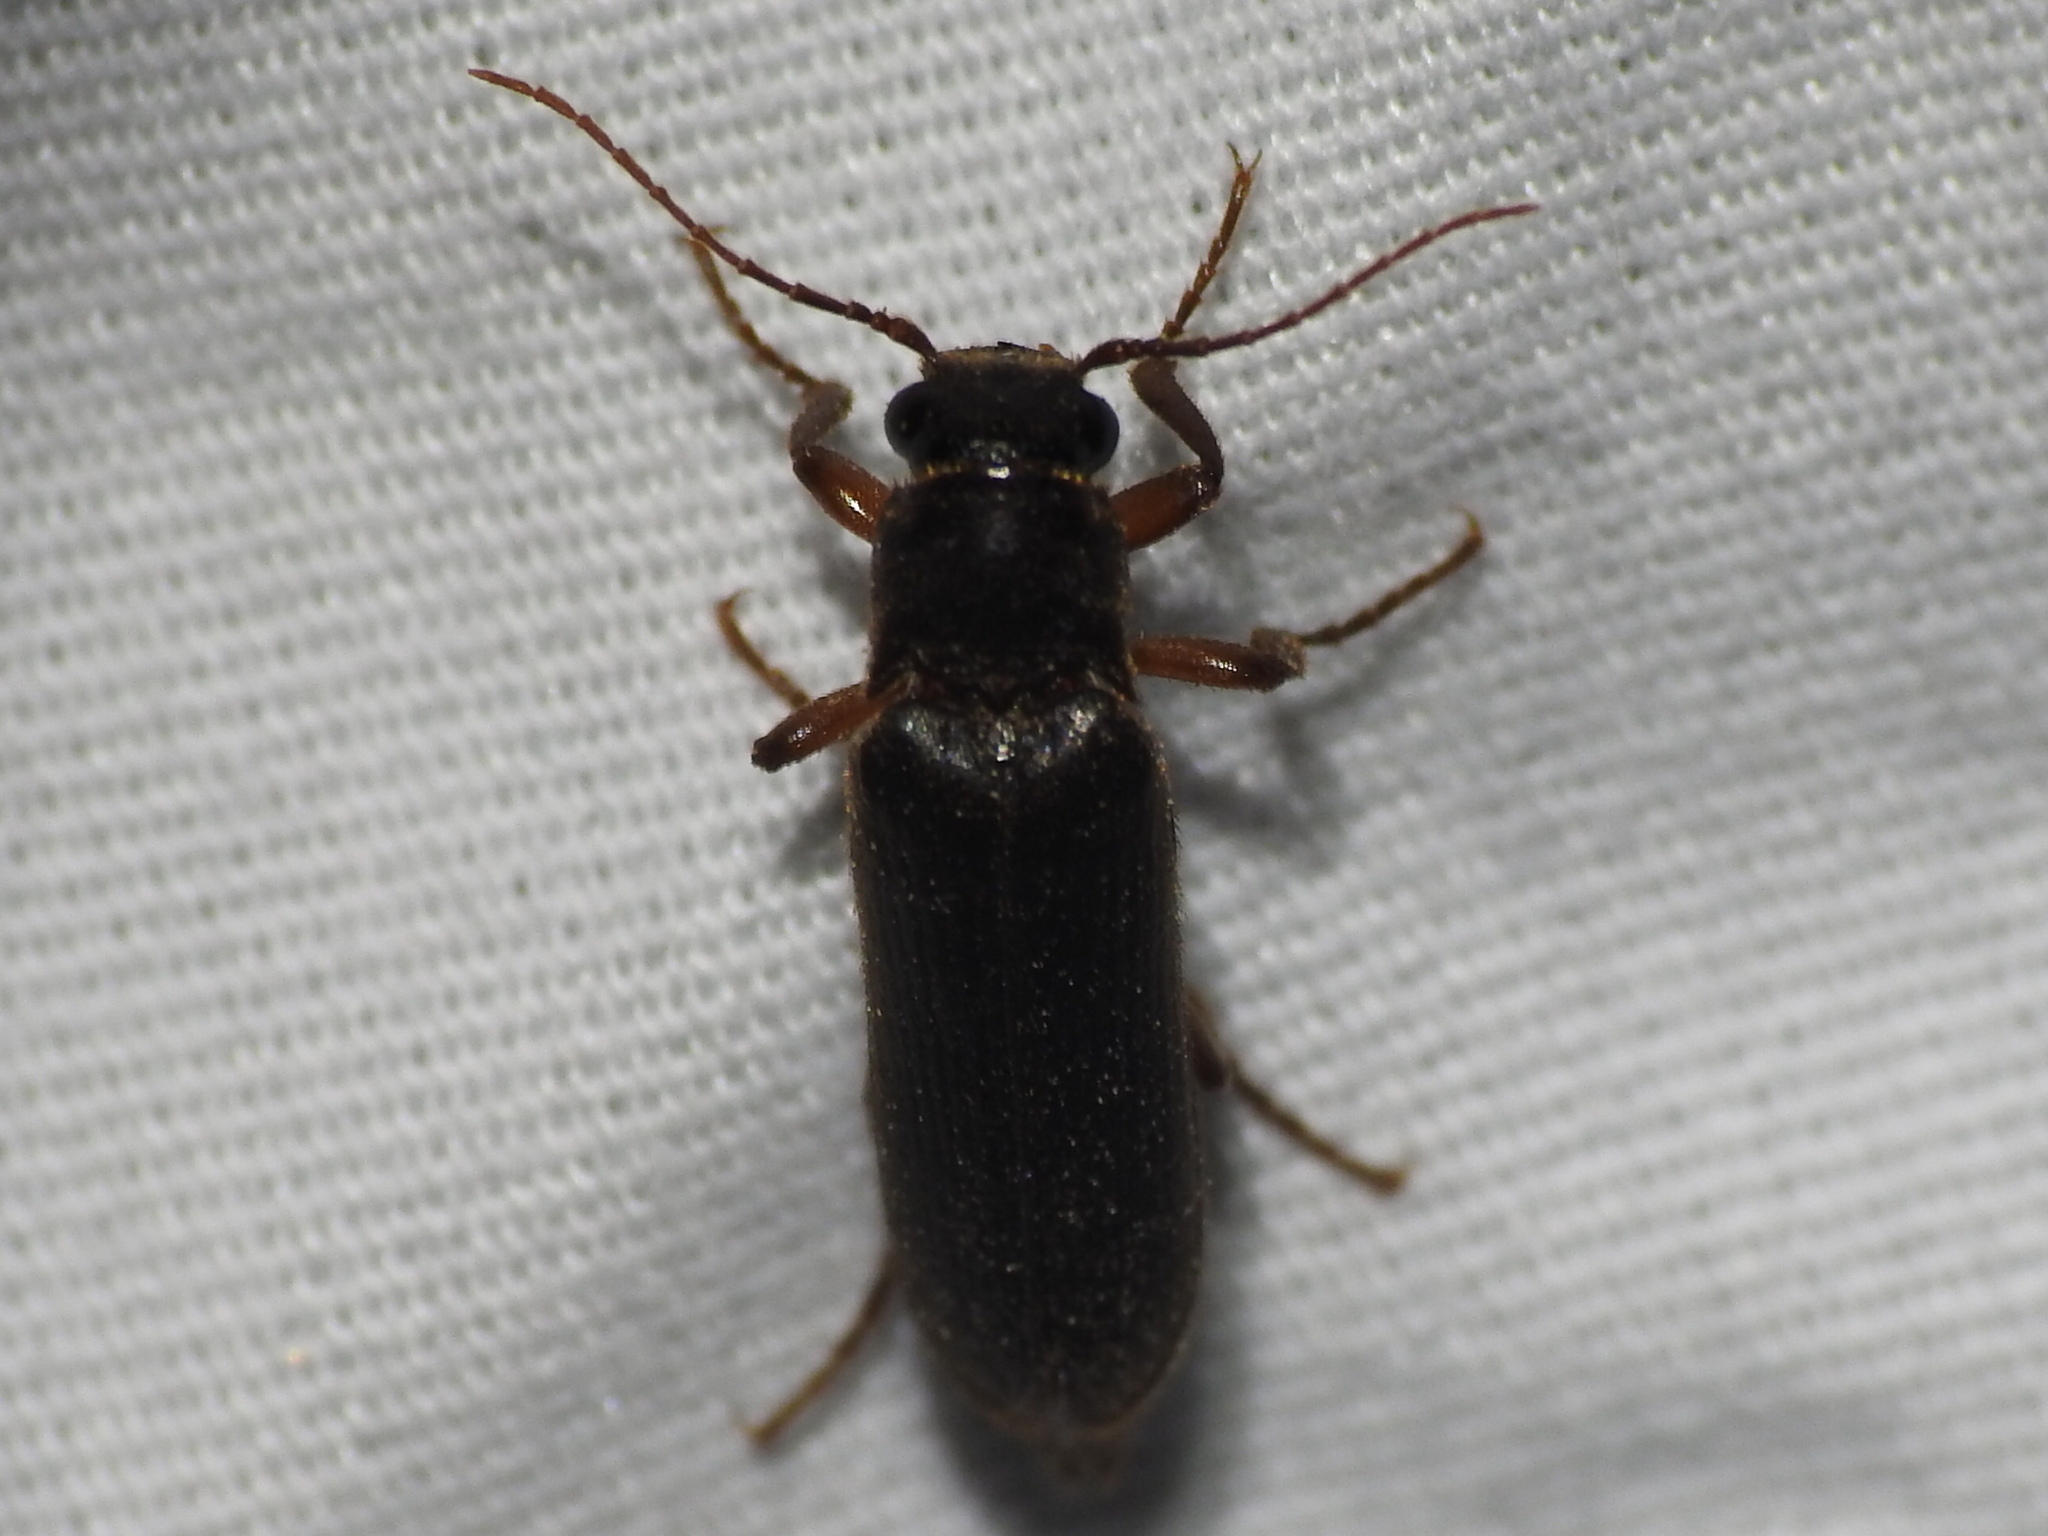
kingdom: Animalia
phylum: Arthropoda
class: Insecta
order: Coleoptera
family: Elateridae
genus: Selonodon
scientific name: Selonodon
